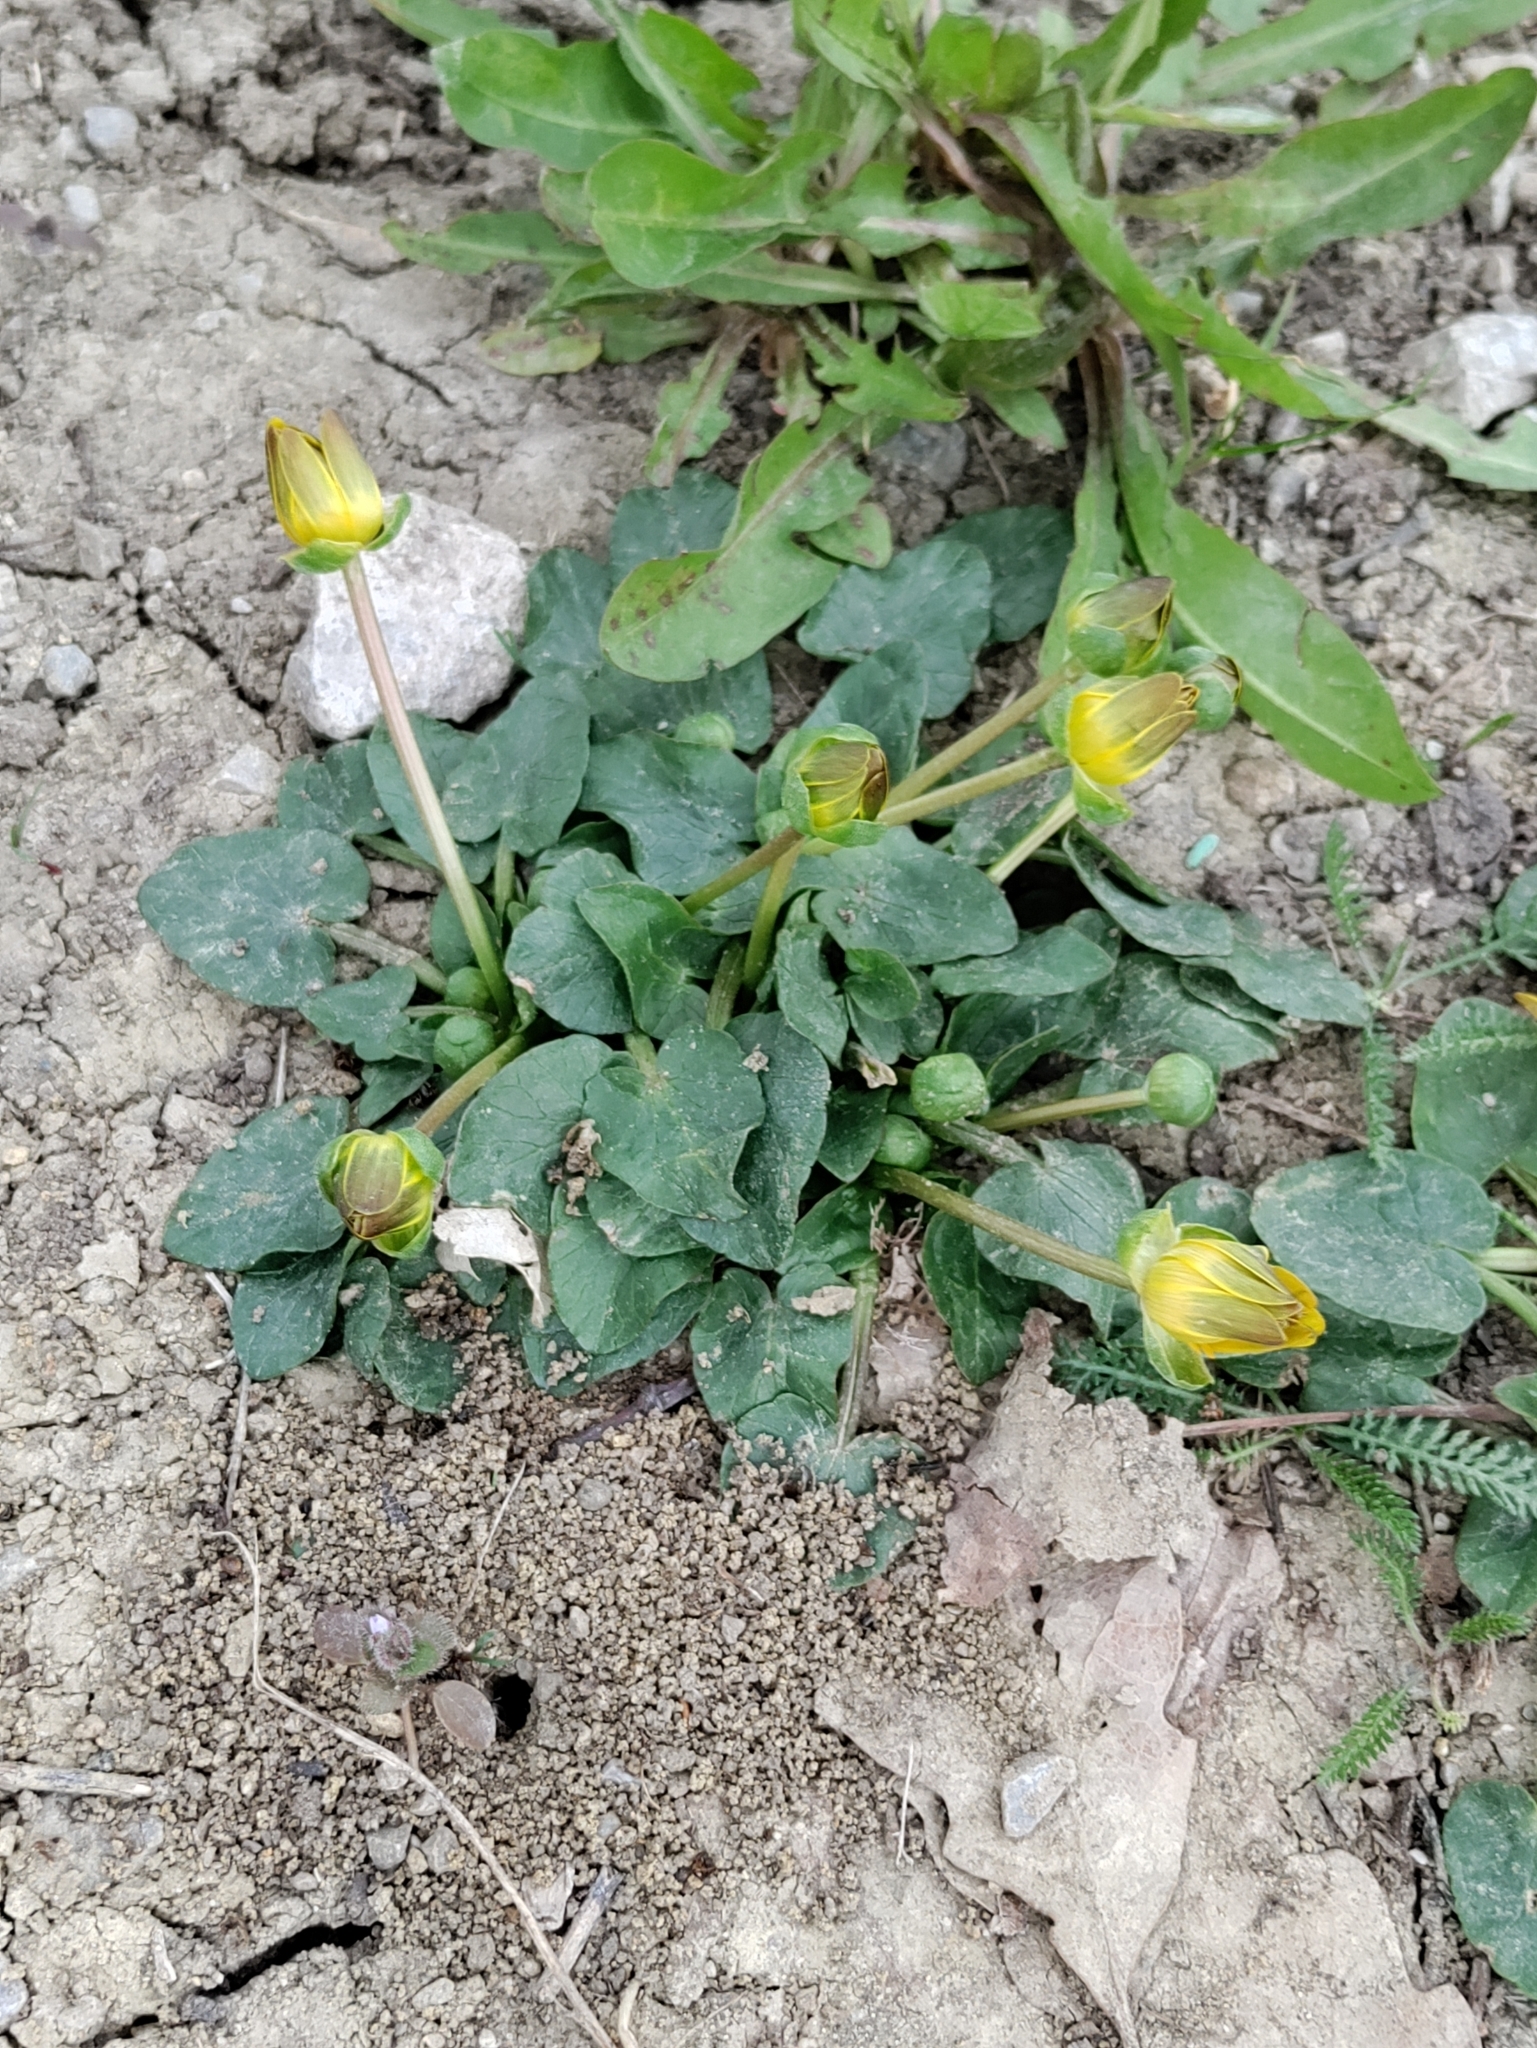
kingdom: Plantae
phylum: Tracheophyta
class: Magnoliopsida
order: Ranunculales
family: Ranunculaceae
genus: Ficaria
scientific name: Ficaria verna
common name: Lesser celandine
